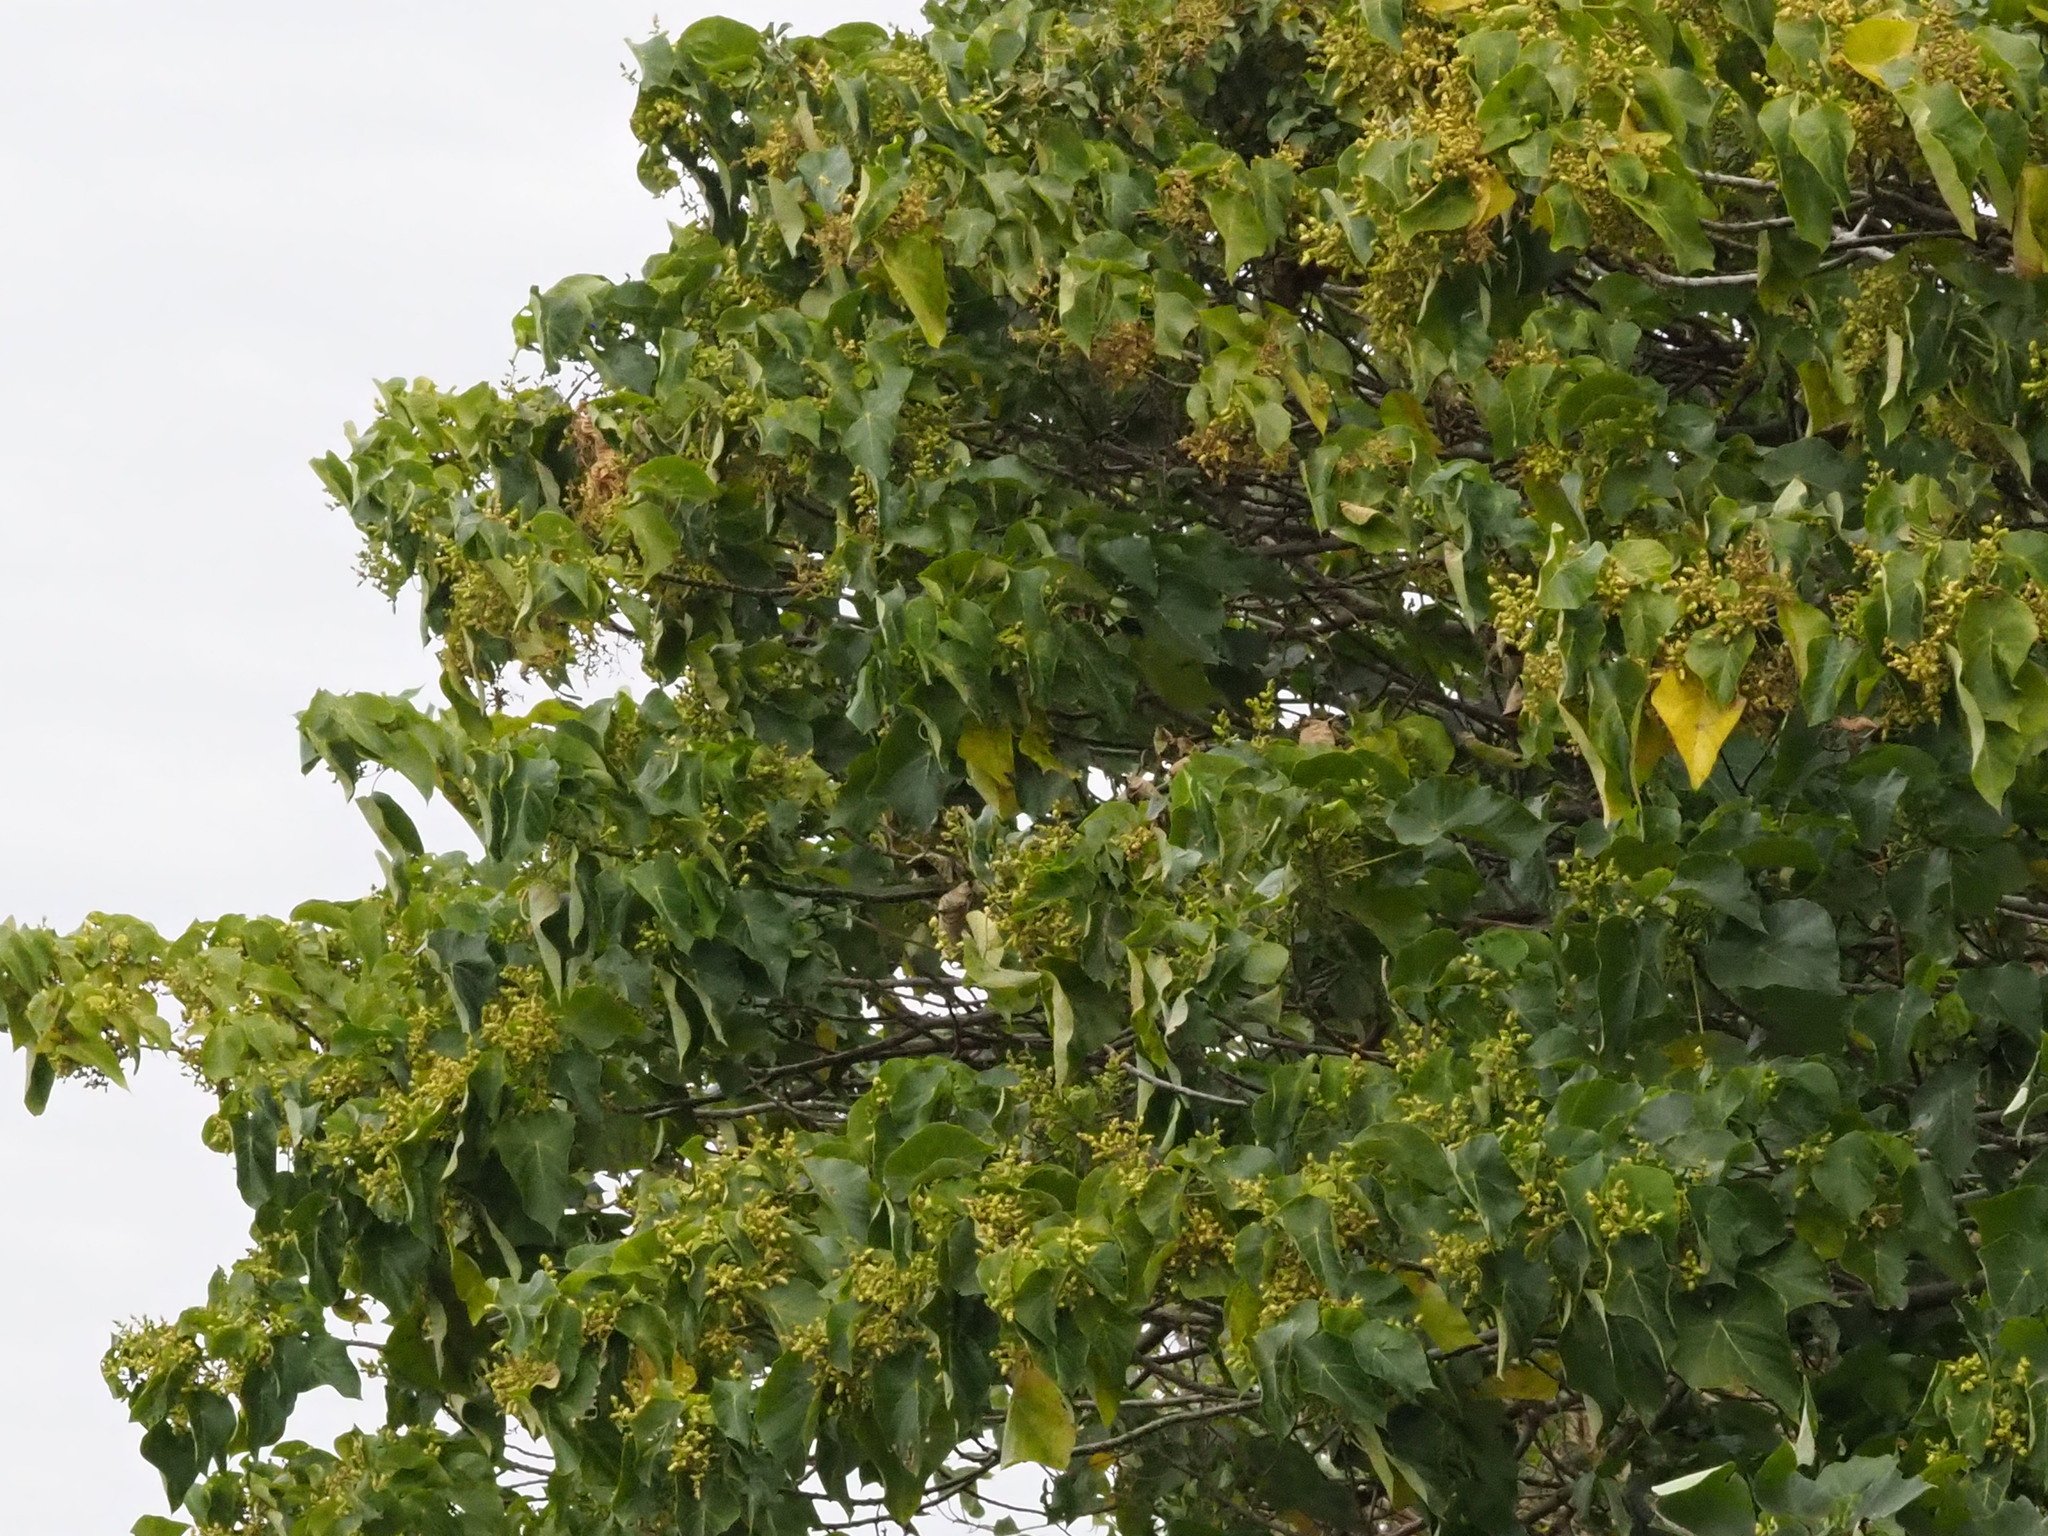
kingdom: Plantae
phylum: Tracheophyta
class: Magnoliopsida
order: Malpighiales
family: Euphorbiaceae
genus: Macaranga
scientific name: Macaranga tanarius
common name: Parasol leaf tree
